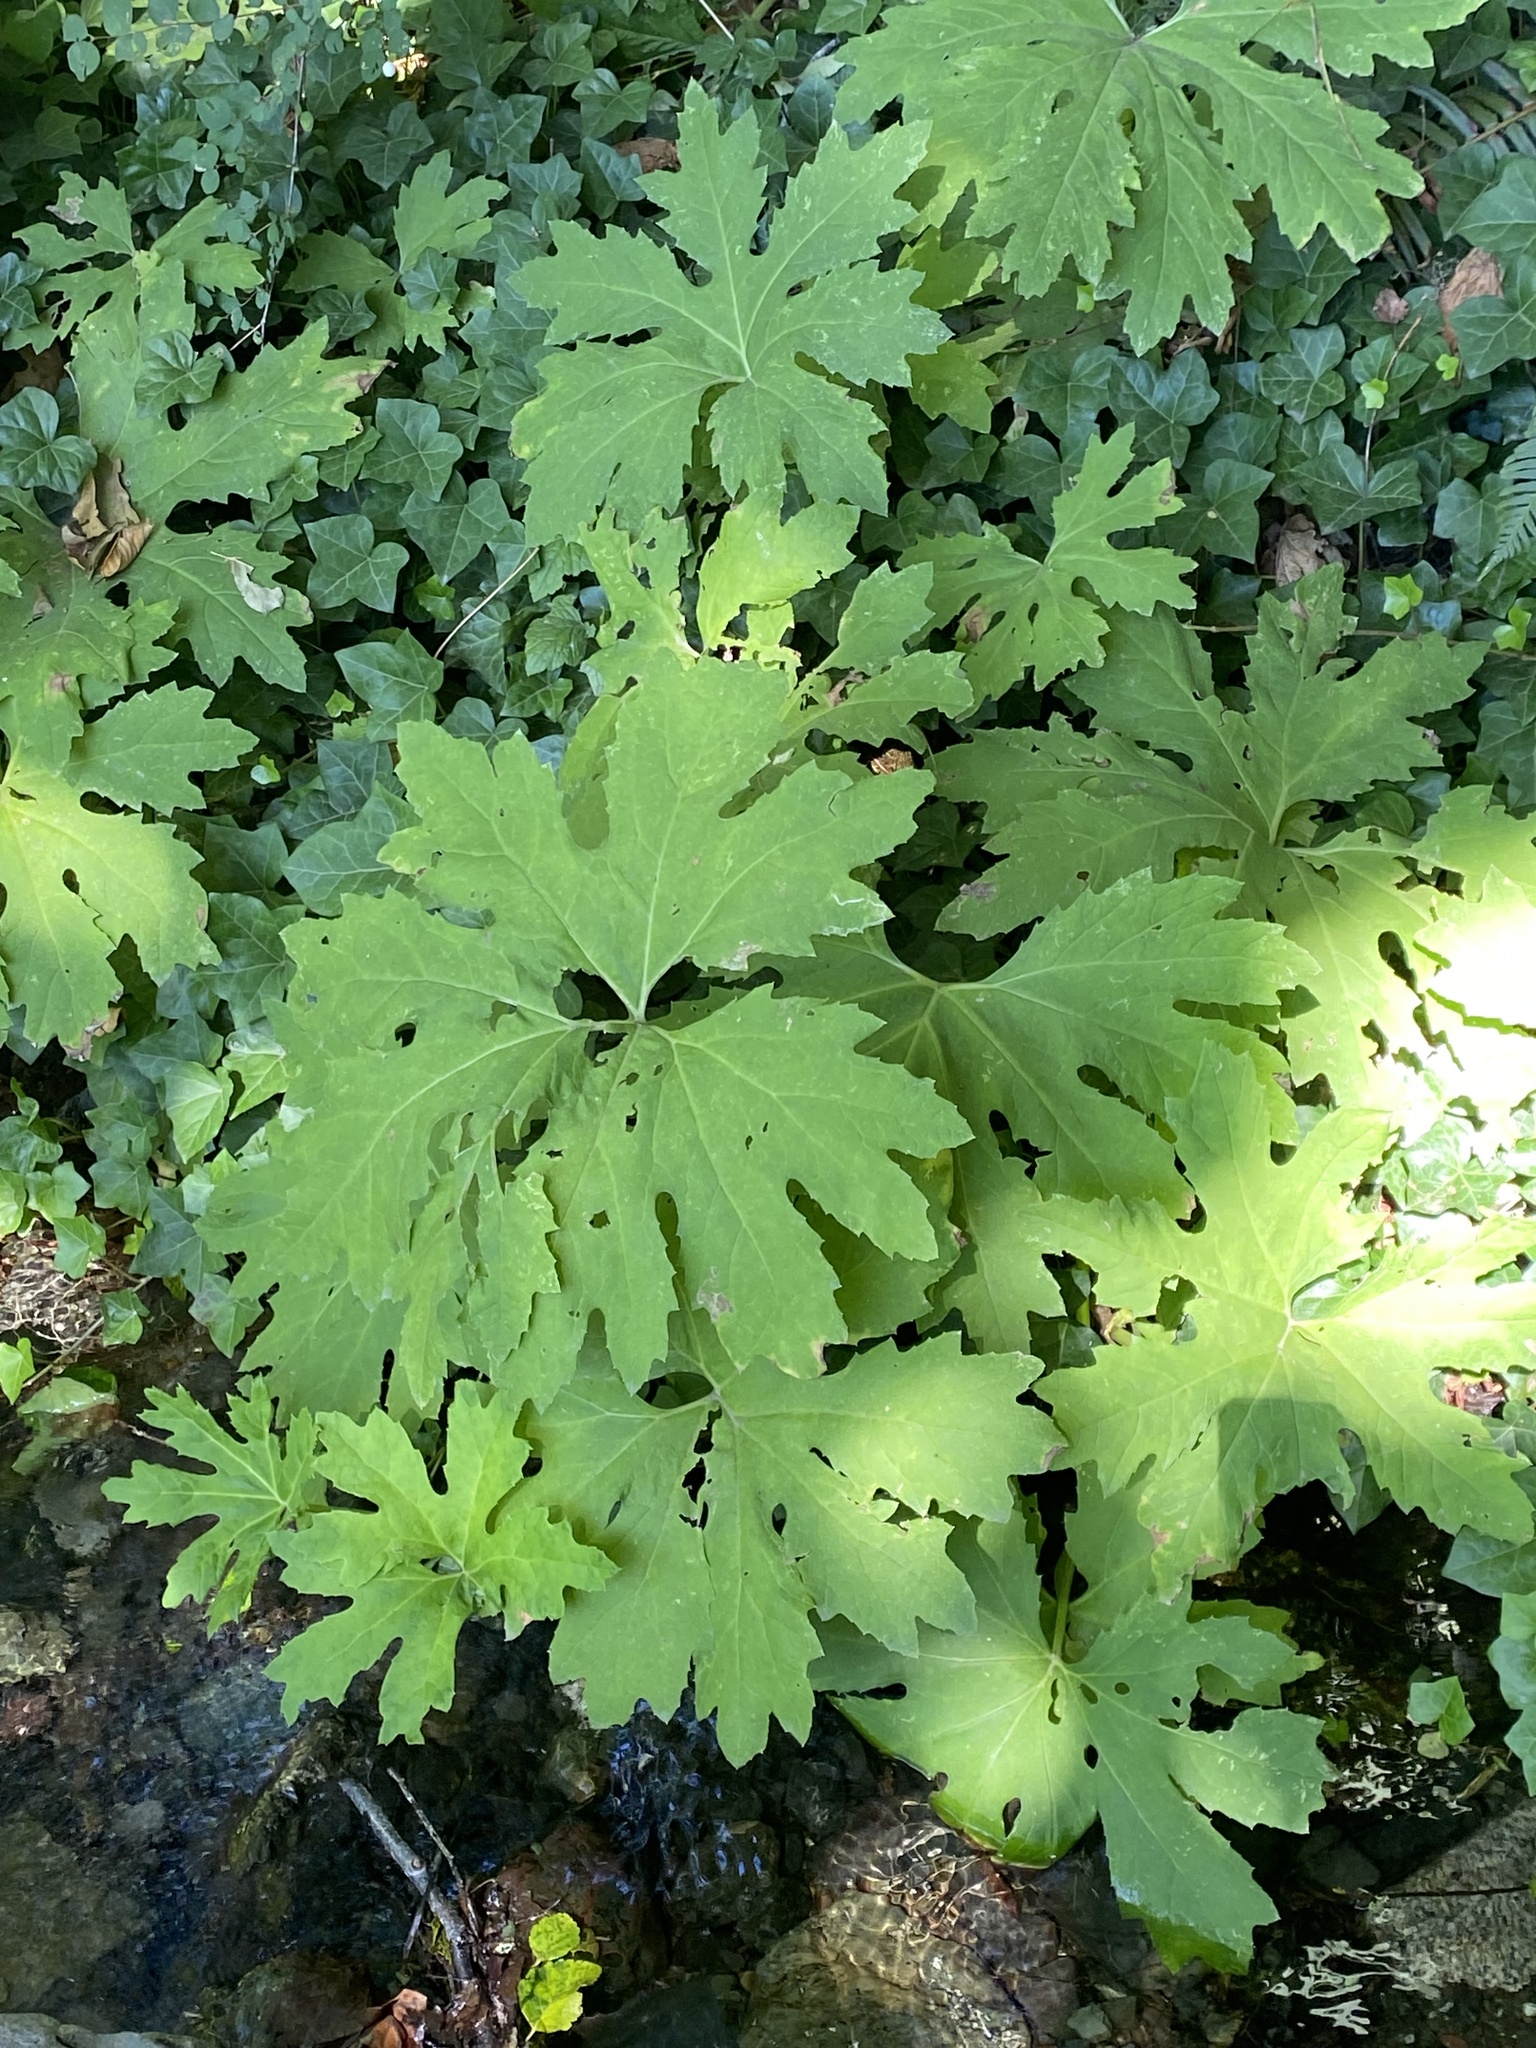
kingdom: Plantae
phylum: Tracheophyta
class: Magnoliopsida
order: Asterales
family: Asteraceae
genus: Petasites
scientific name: Petasites frigidus
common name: Arctic butterbur
